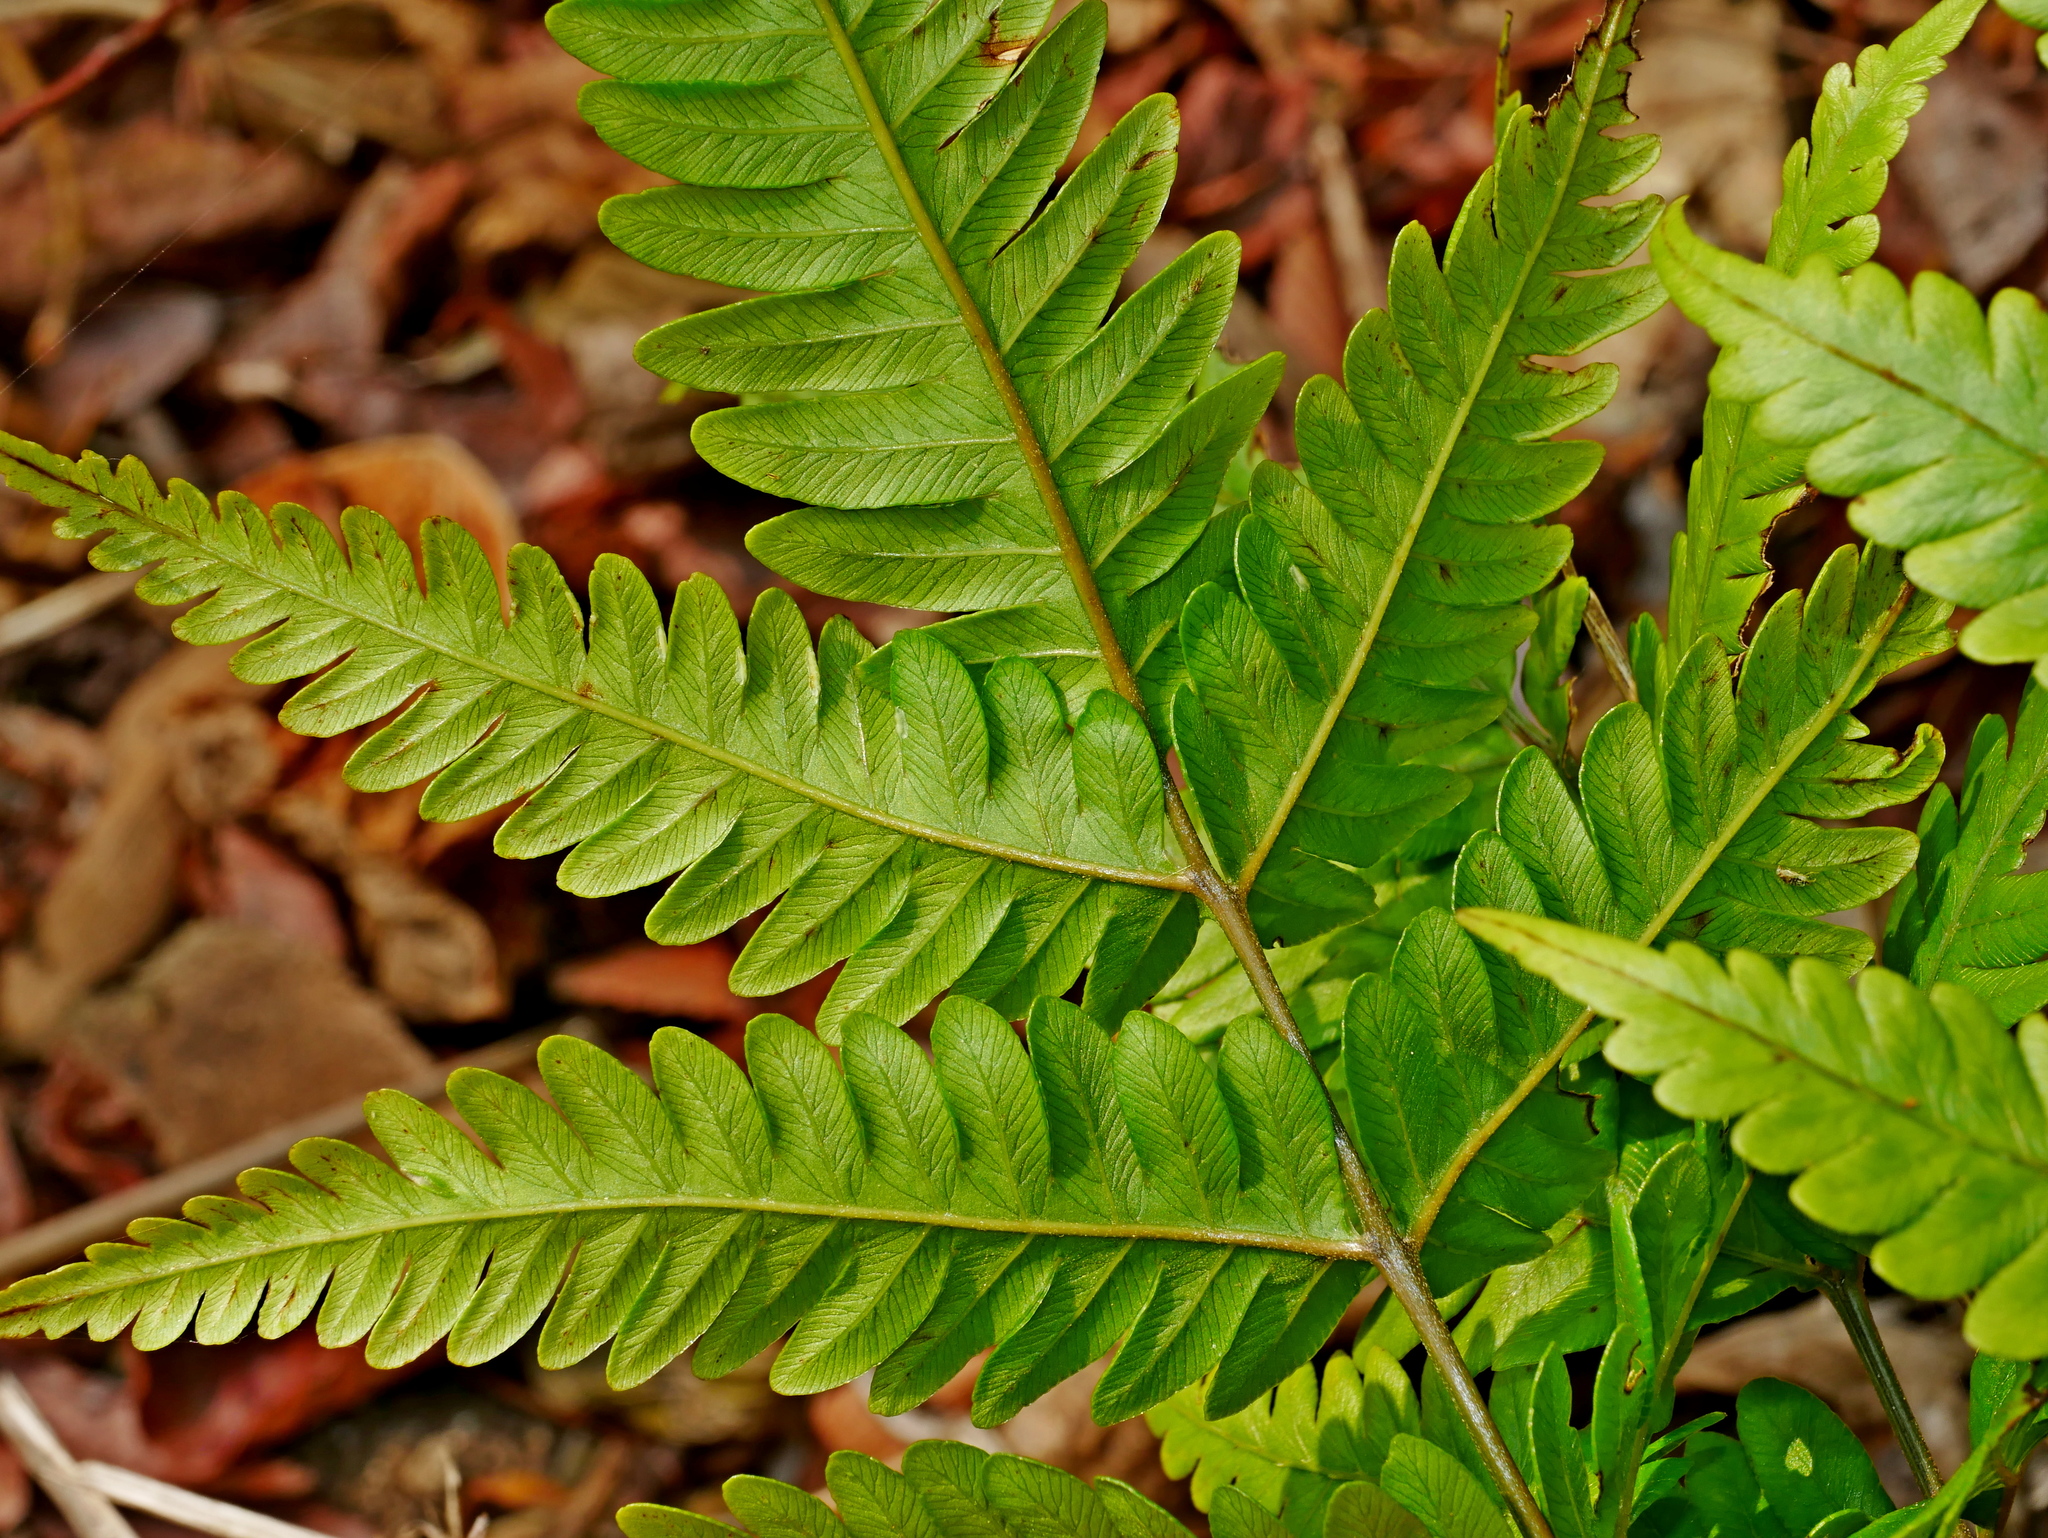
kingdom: Plantae
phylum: Tracheophyta
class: Polypodiopsida
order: Polypodiales
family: Pteridaceae
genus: Pteris
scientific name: Pteris arisanensis
